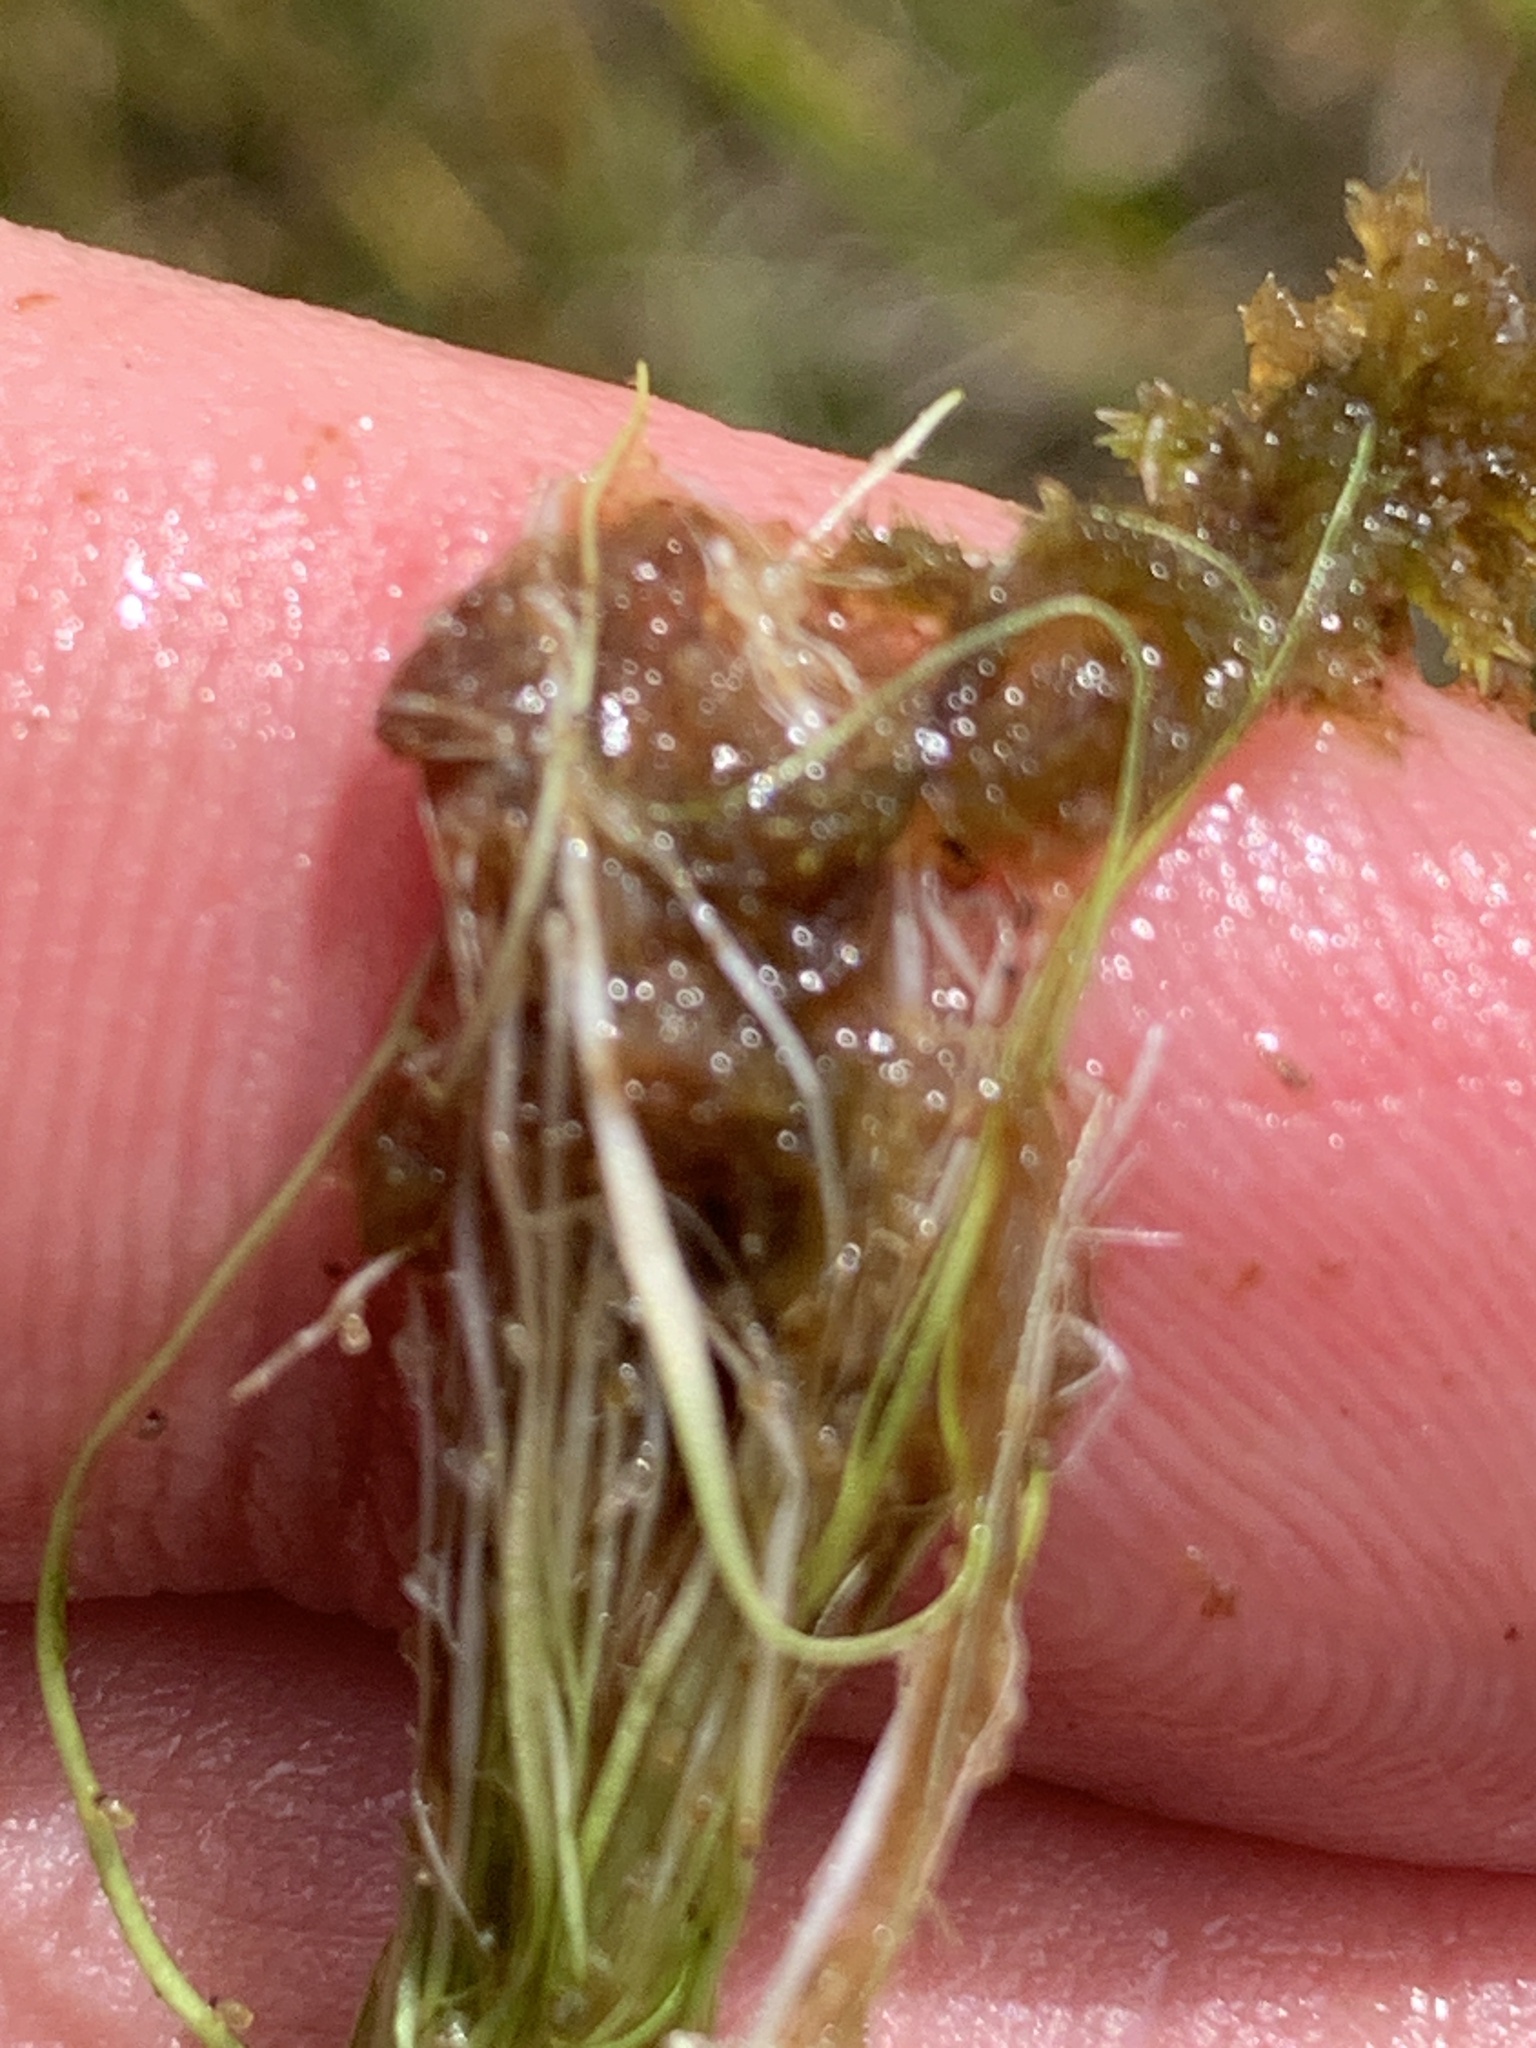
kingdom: Plantae
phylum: Tracheophyta
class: Magnoliopsida
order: Lamiales
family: Lentibulariaceae
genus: Utricularia
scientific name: Utricularia resupinata
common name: Northeastern bladderwort
